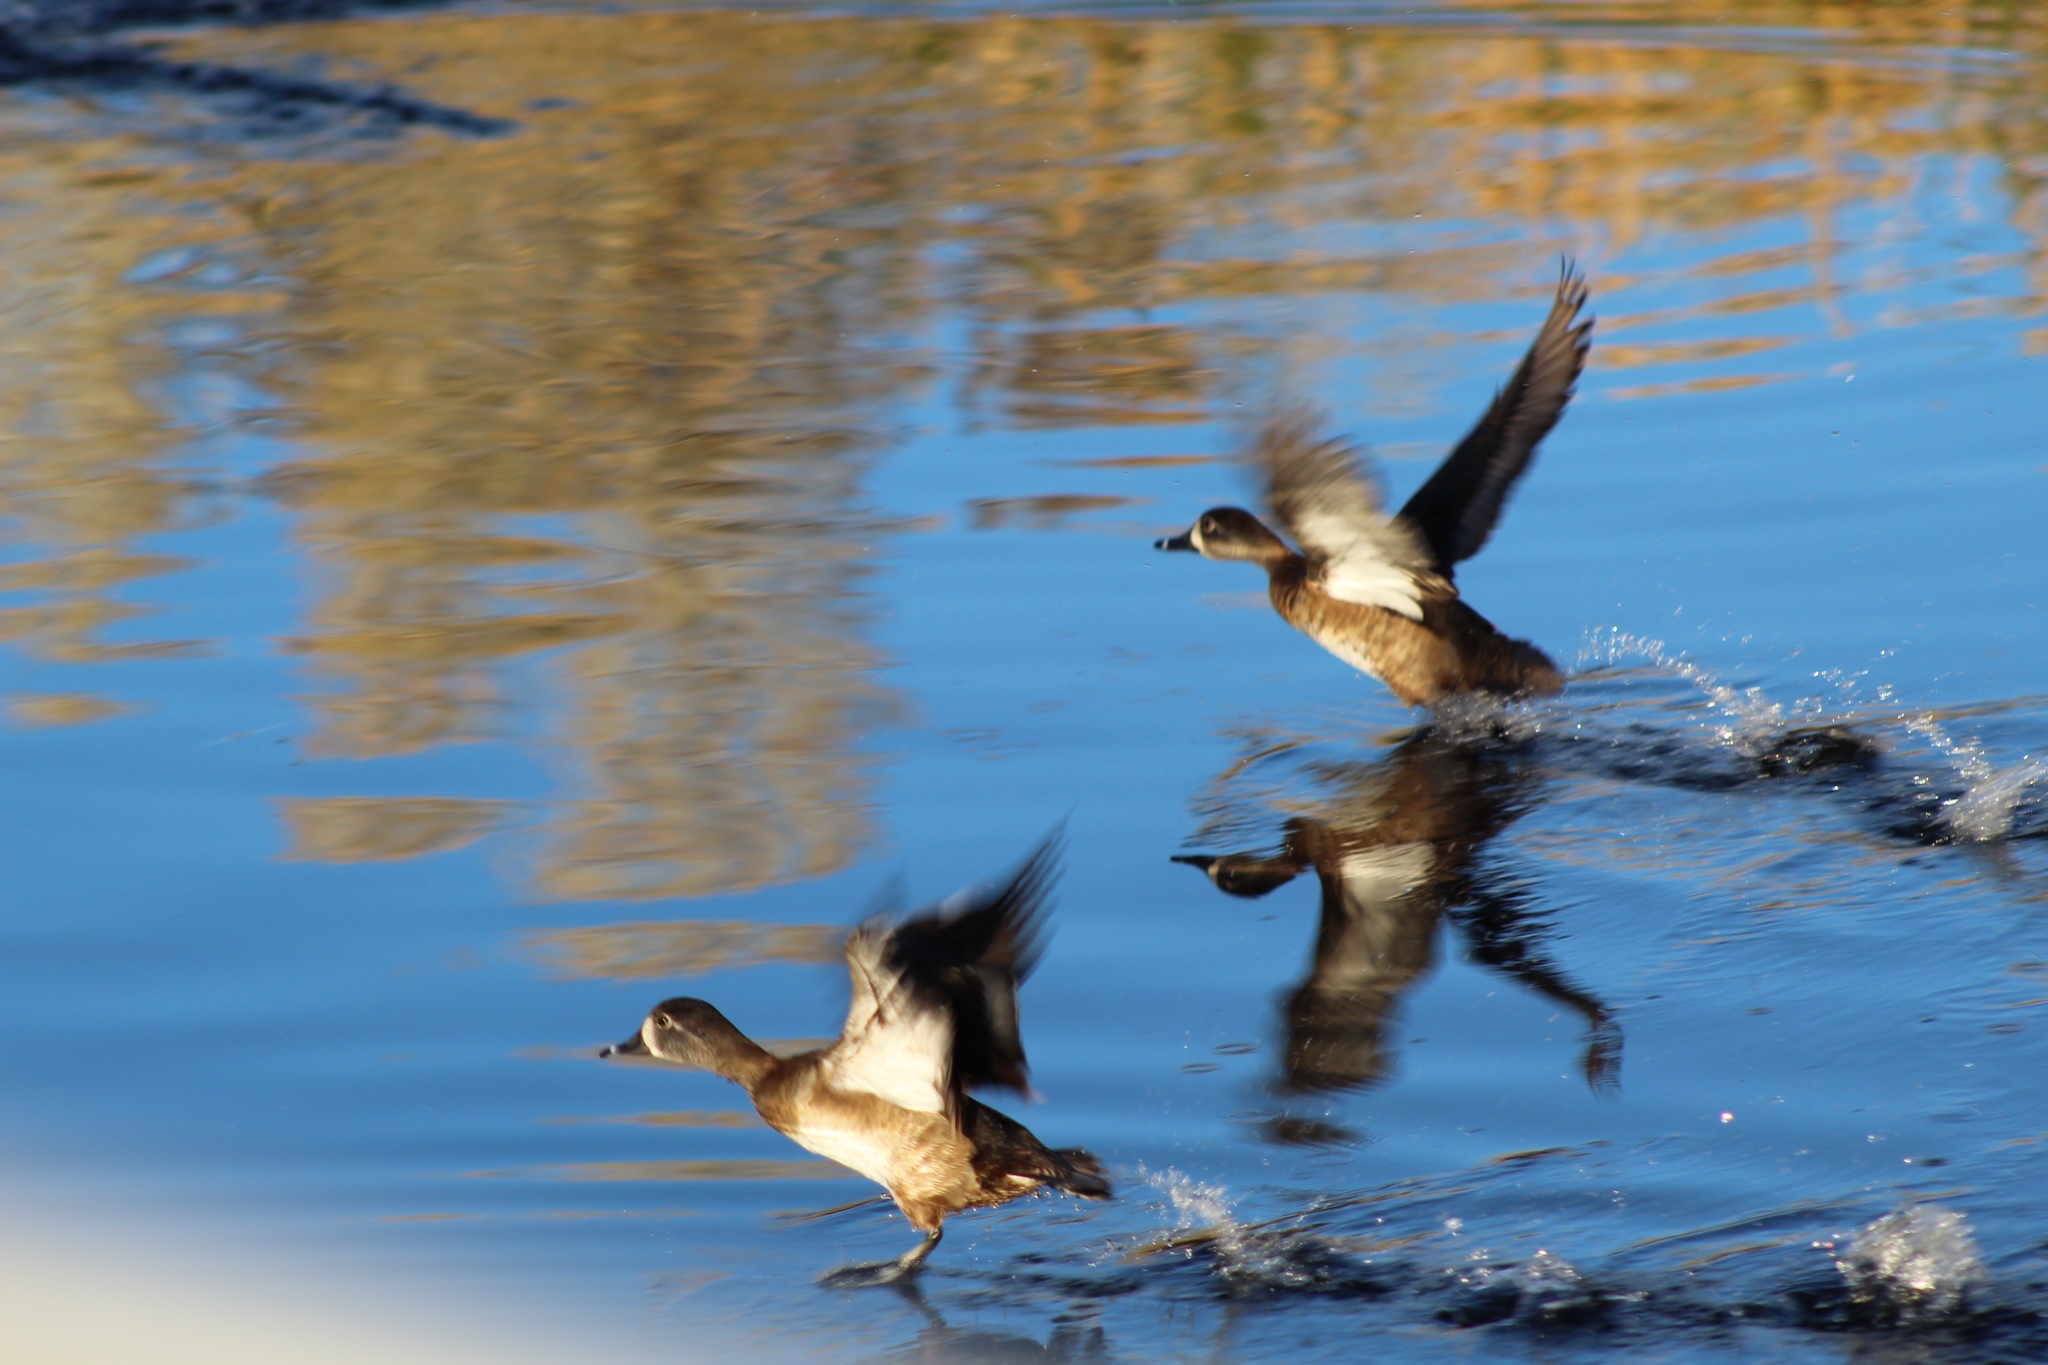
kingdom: Animalia
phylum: Chordata
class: Aves
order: Anseriformes
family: Anatidae
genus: Aythya
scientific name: Aythya collaris
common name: Ring-necked duck
